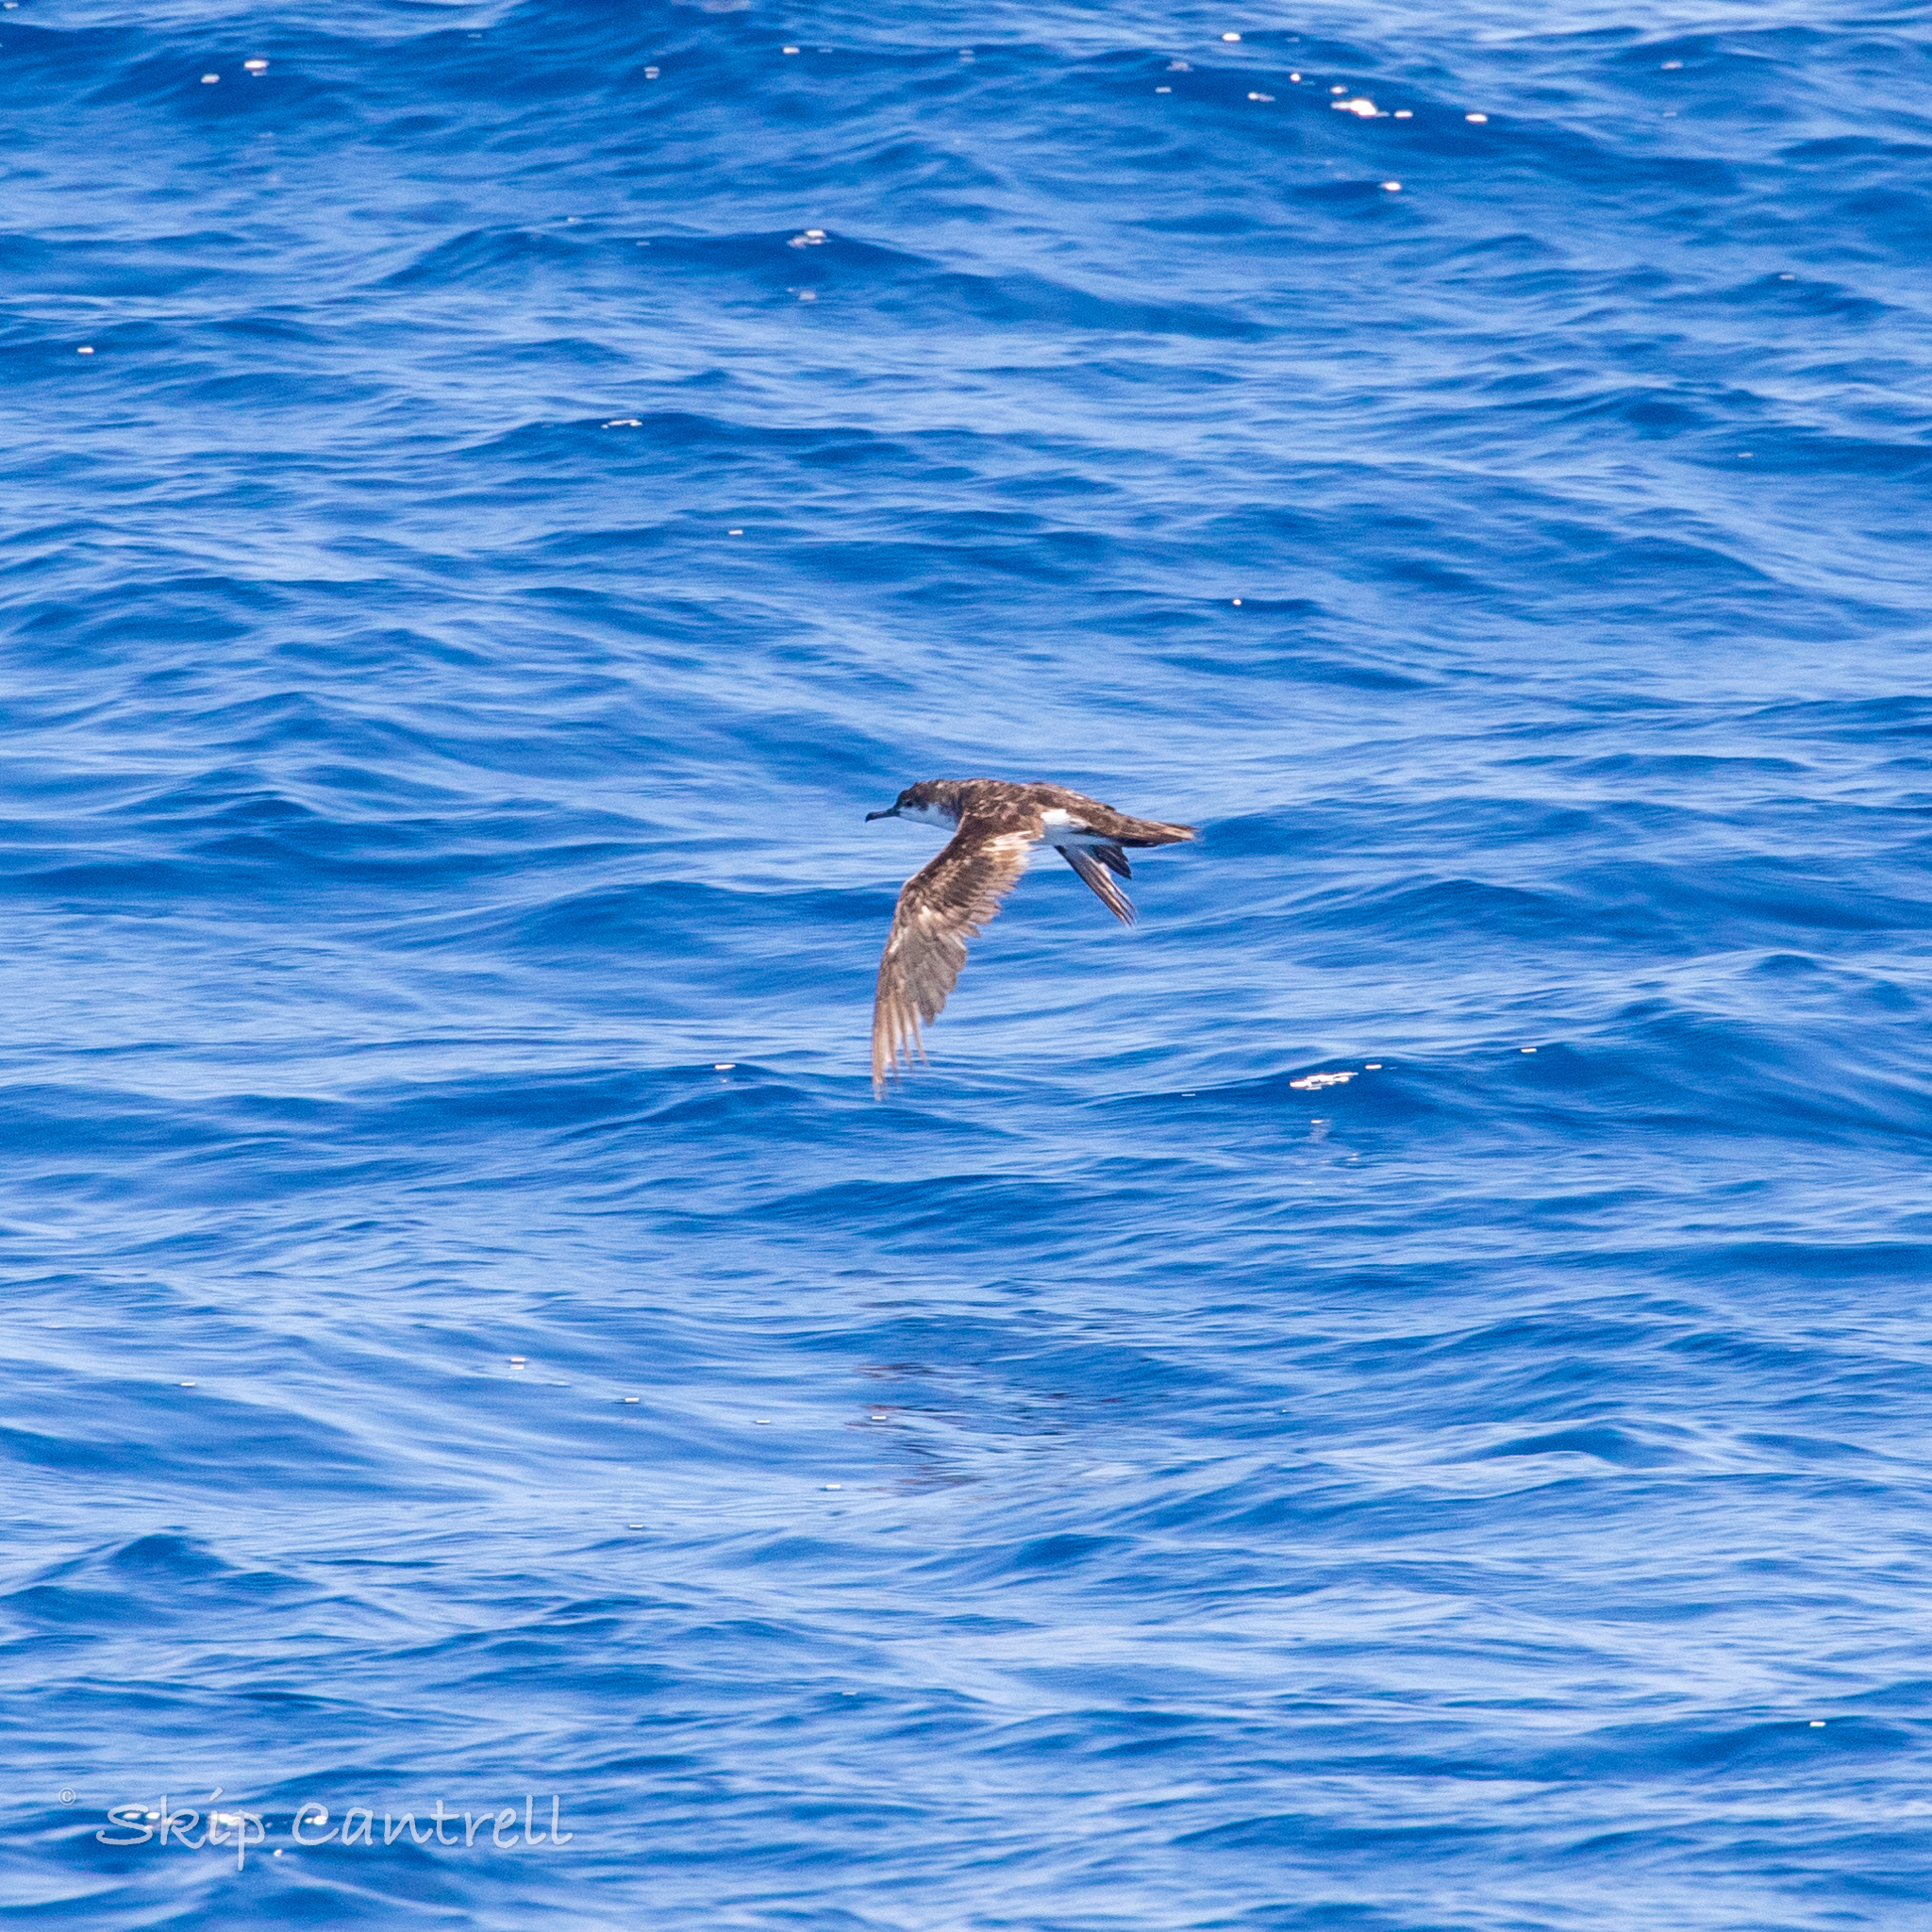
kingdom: Animalia
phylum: Chordata
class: Aves
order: Procellariiformes
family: Procellariidae
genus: Puffinus
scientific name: Puffinus lherminieri
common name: Audubon's shearwater
